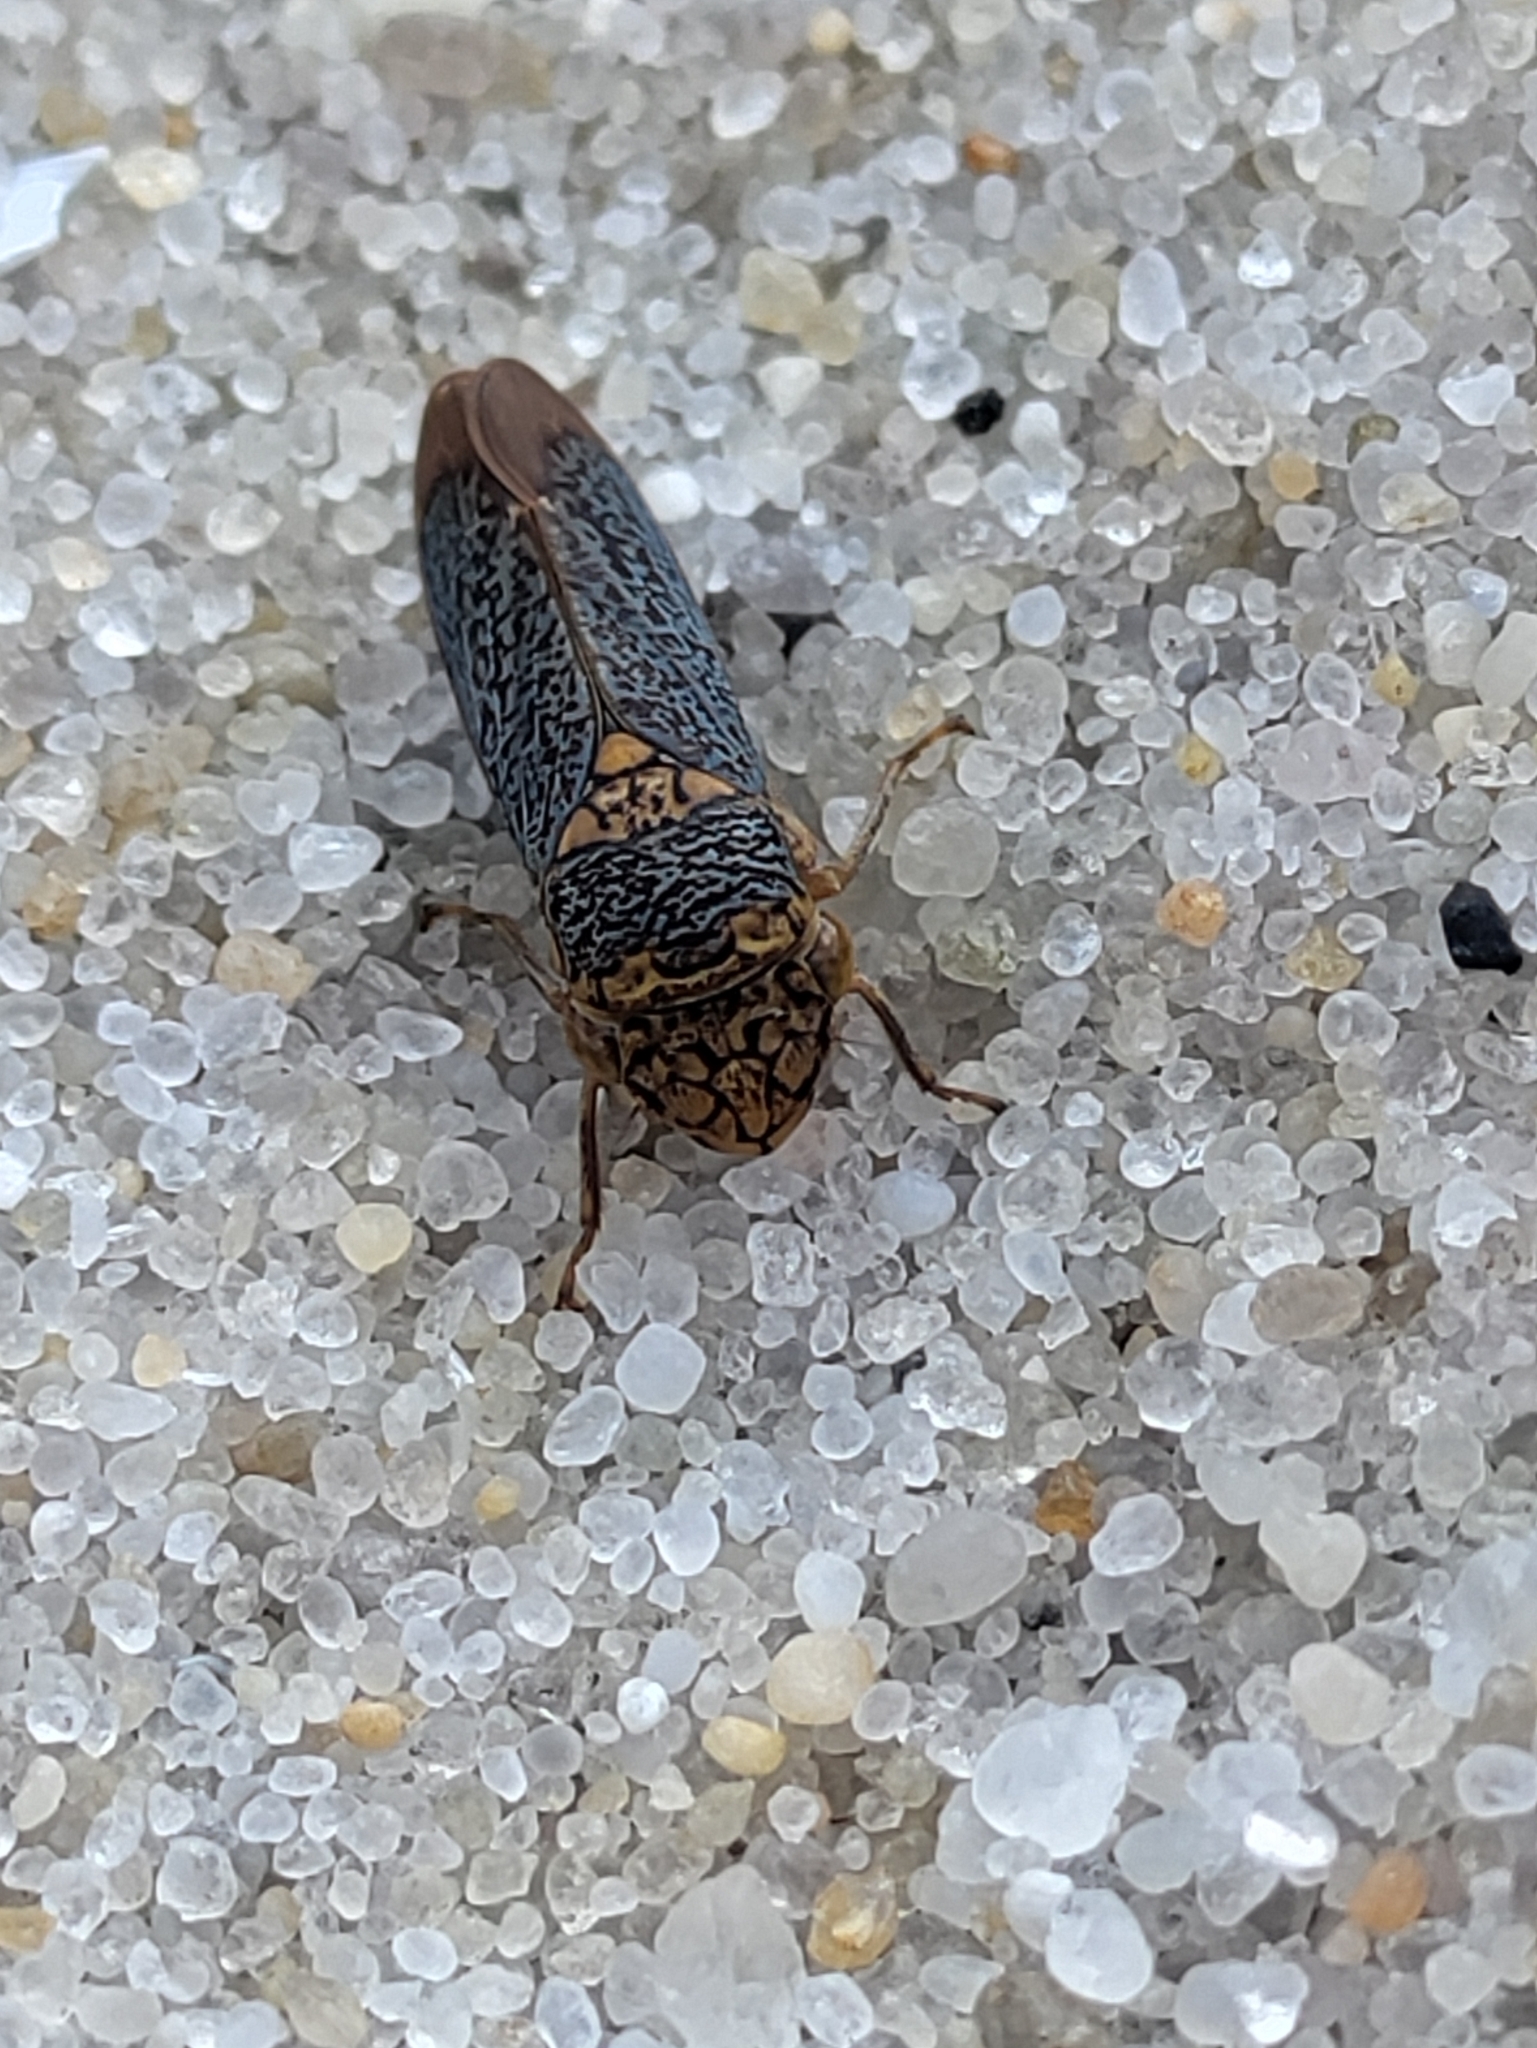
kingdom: Animalia
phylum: Arthropoda
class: Insecta
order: Hemiptera
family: Cicadellidae
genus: Oncometopia
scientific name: Oncometopia orbona
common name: Broad-headed sharpshooter
